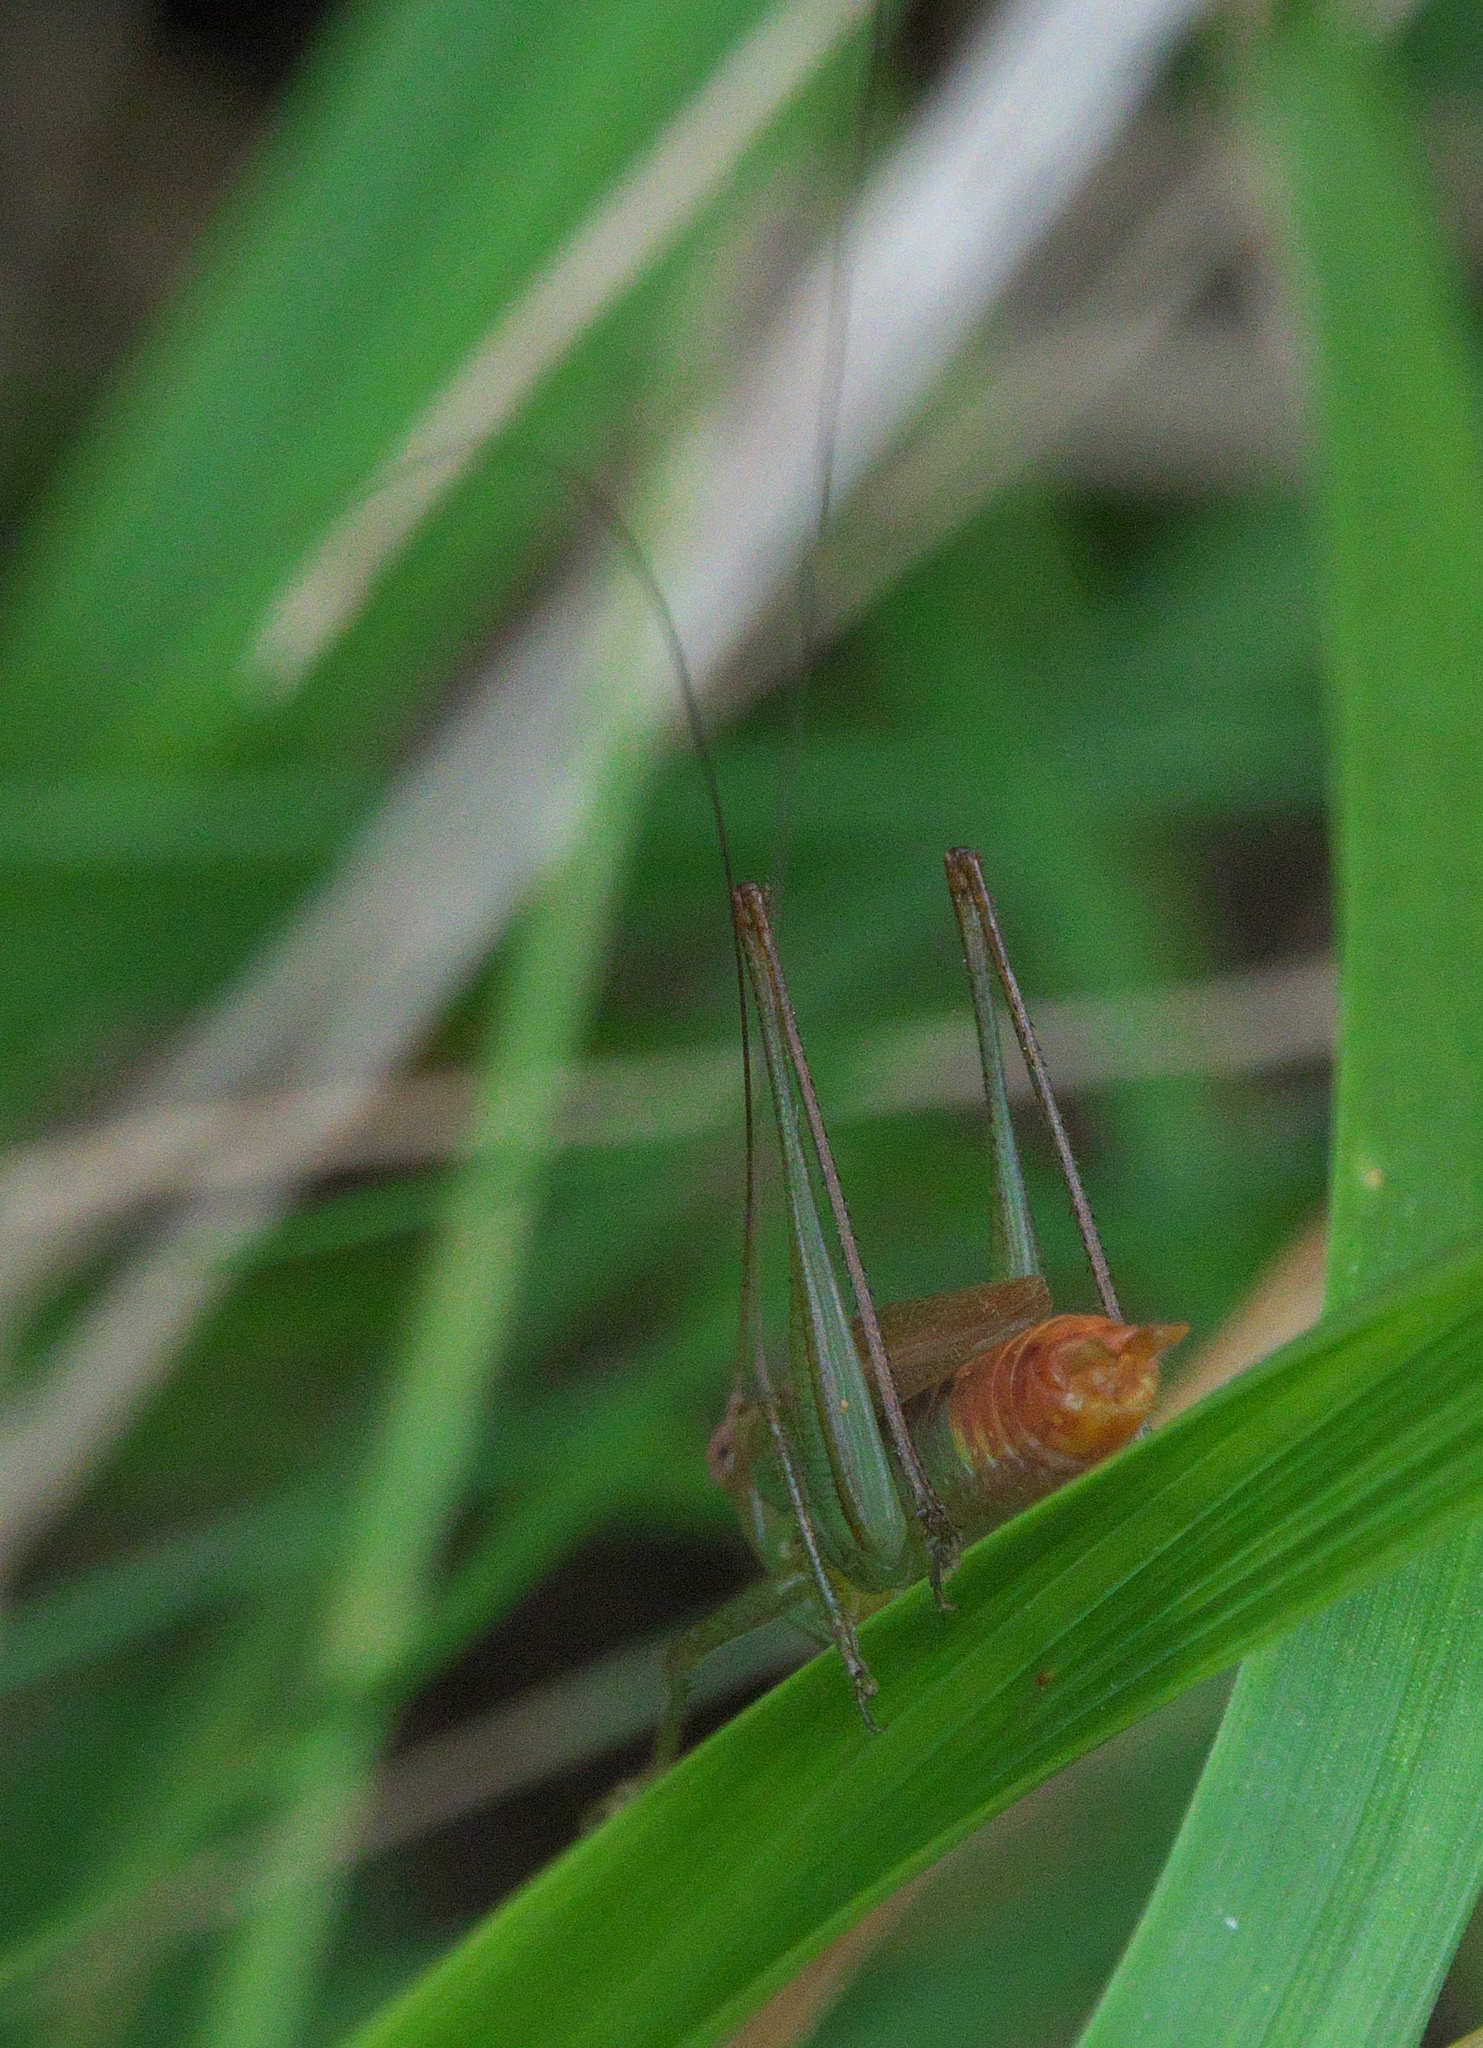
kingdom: Animalia
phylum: Arthropoda
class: Insecta
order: Orthoptera
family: Tettigoniidae
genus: Conocephalus
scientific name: Conocephalus brevipennis
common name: Short-winged meadow katydid
